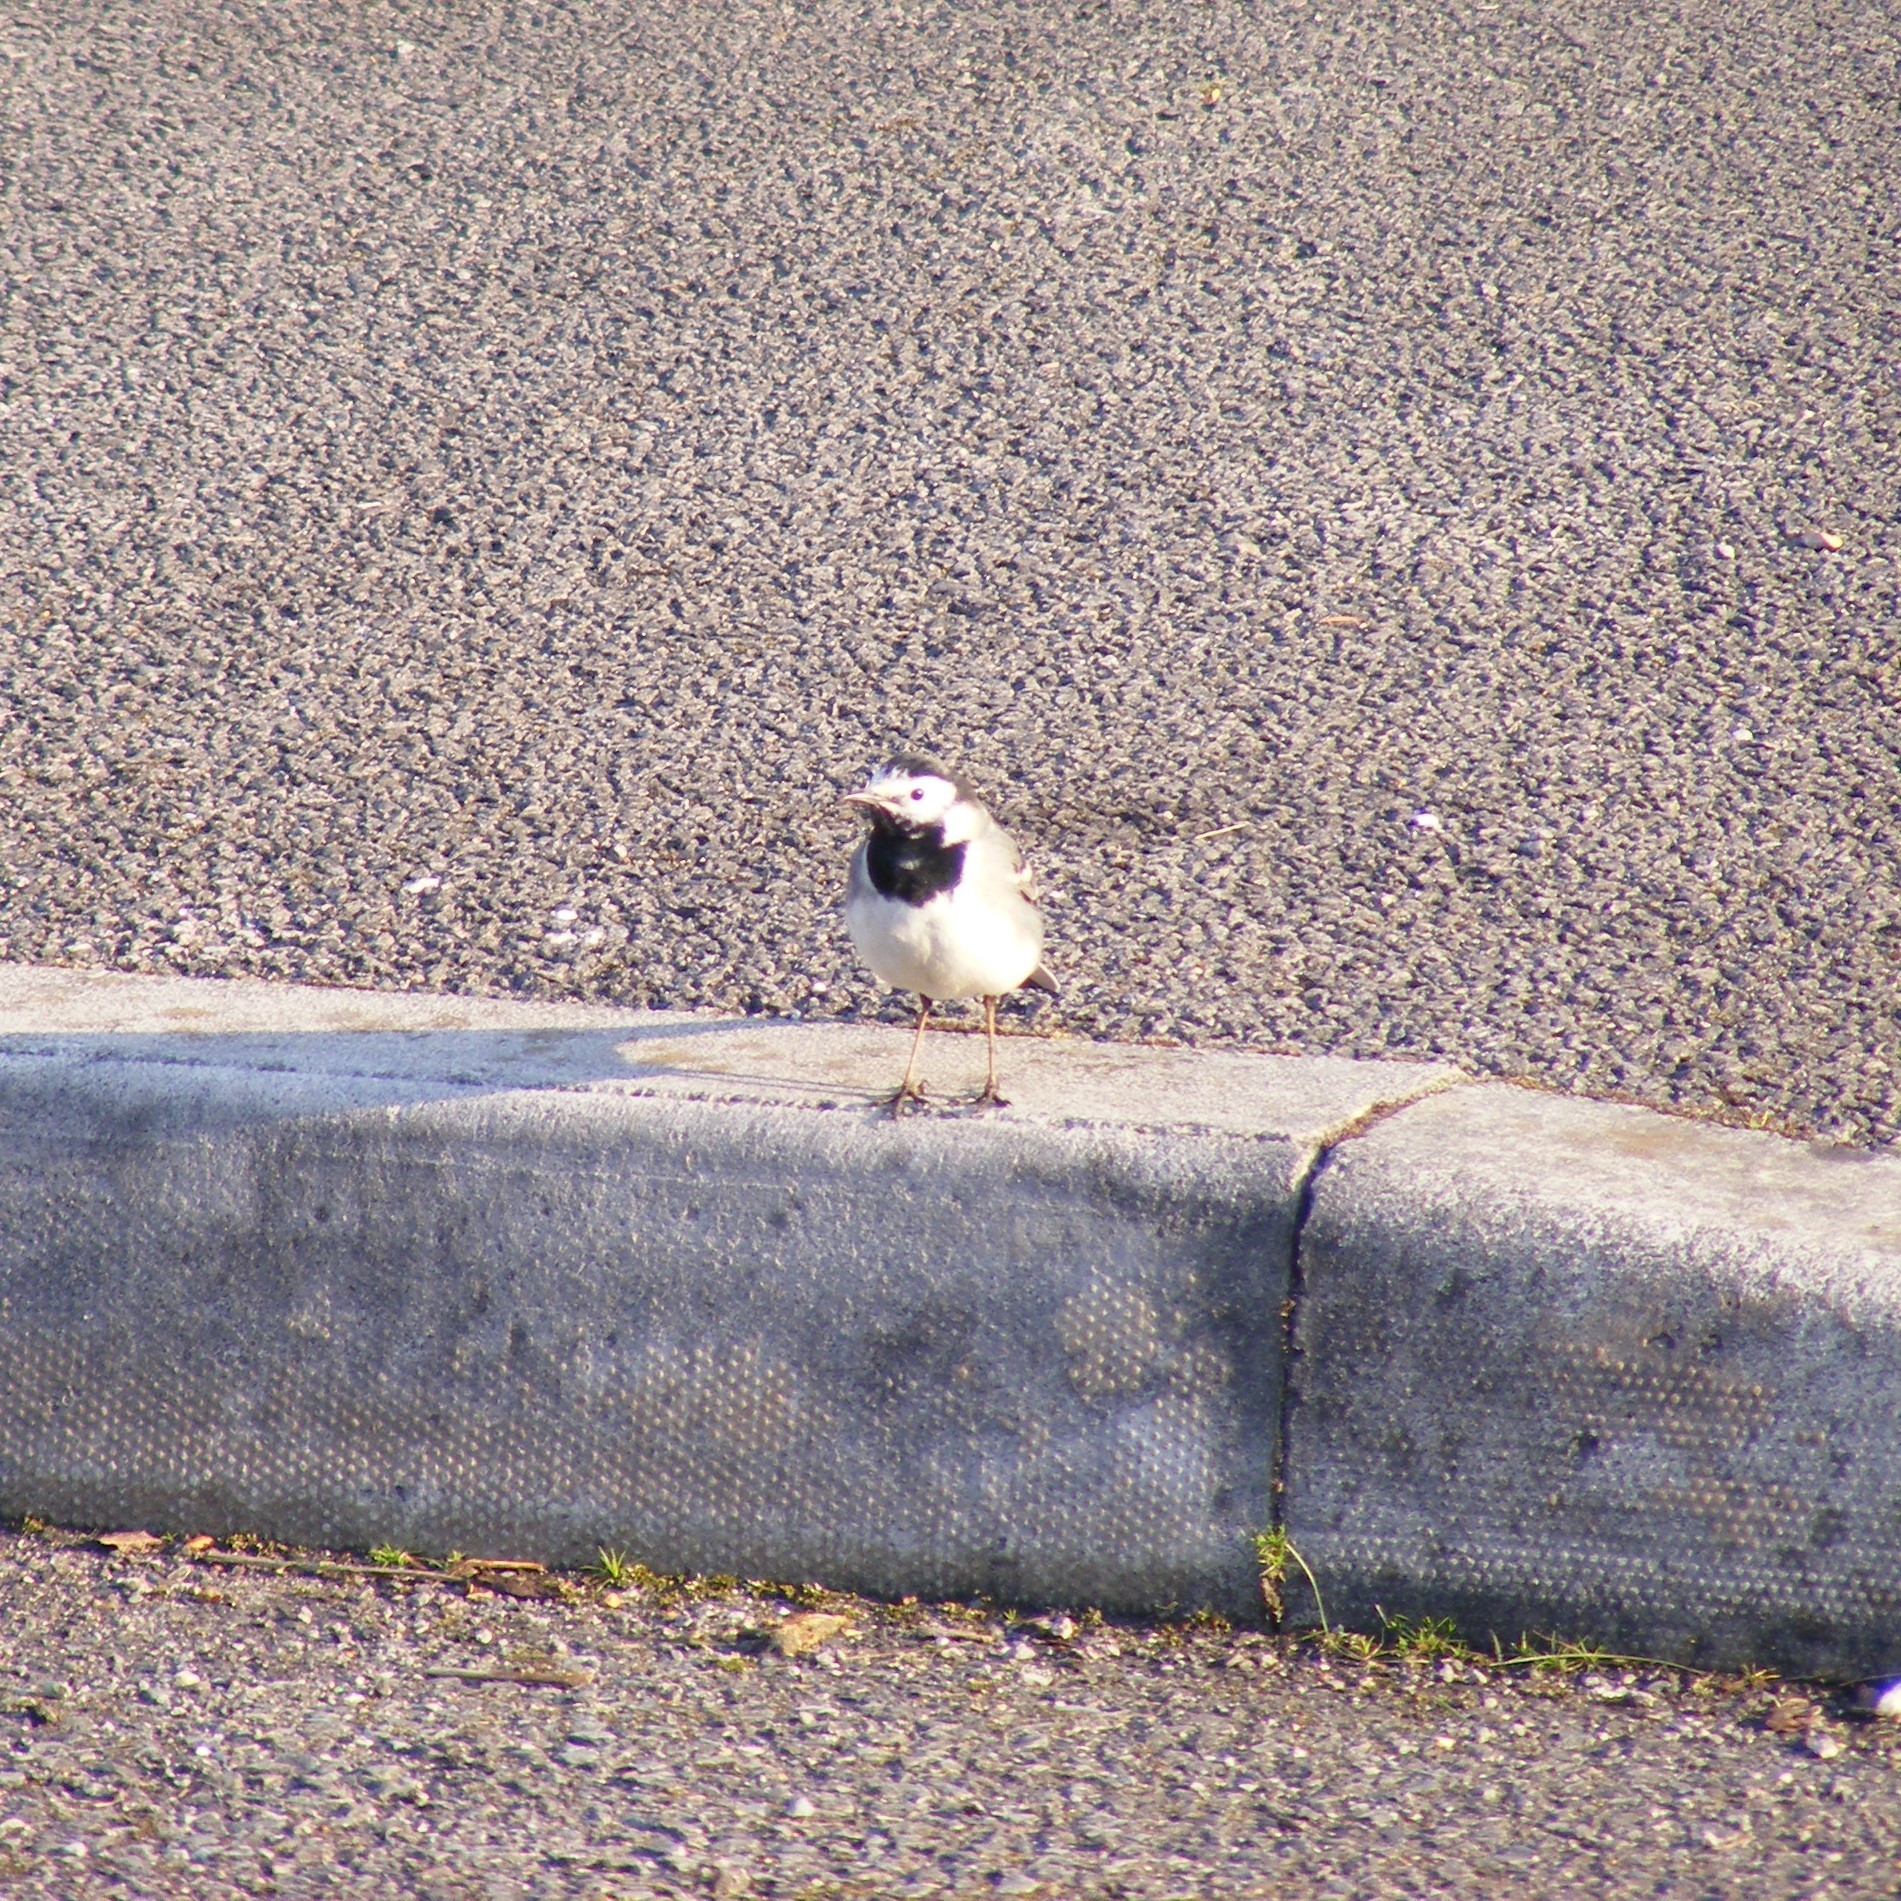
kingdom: Animalia
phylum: Chordata
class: Aves
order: Passeriformes
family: Motacillidae
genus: Motacilla
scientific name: Motacilla alba
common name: White wagtail
